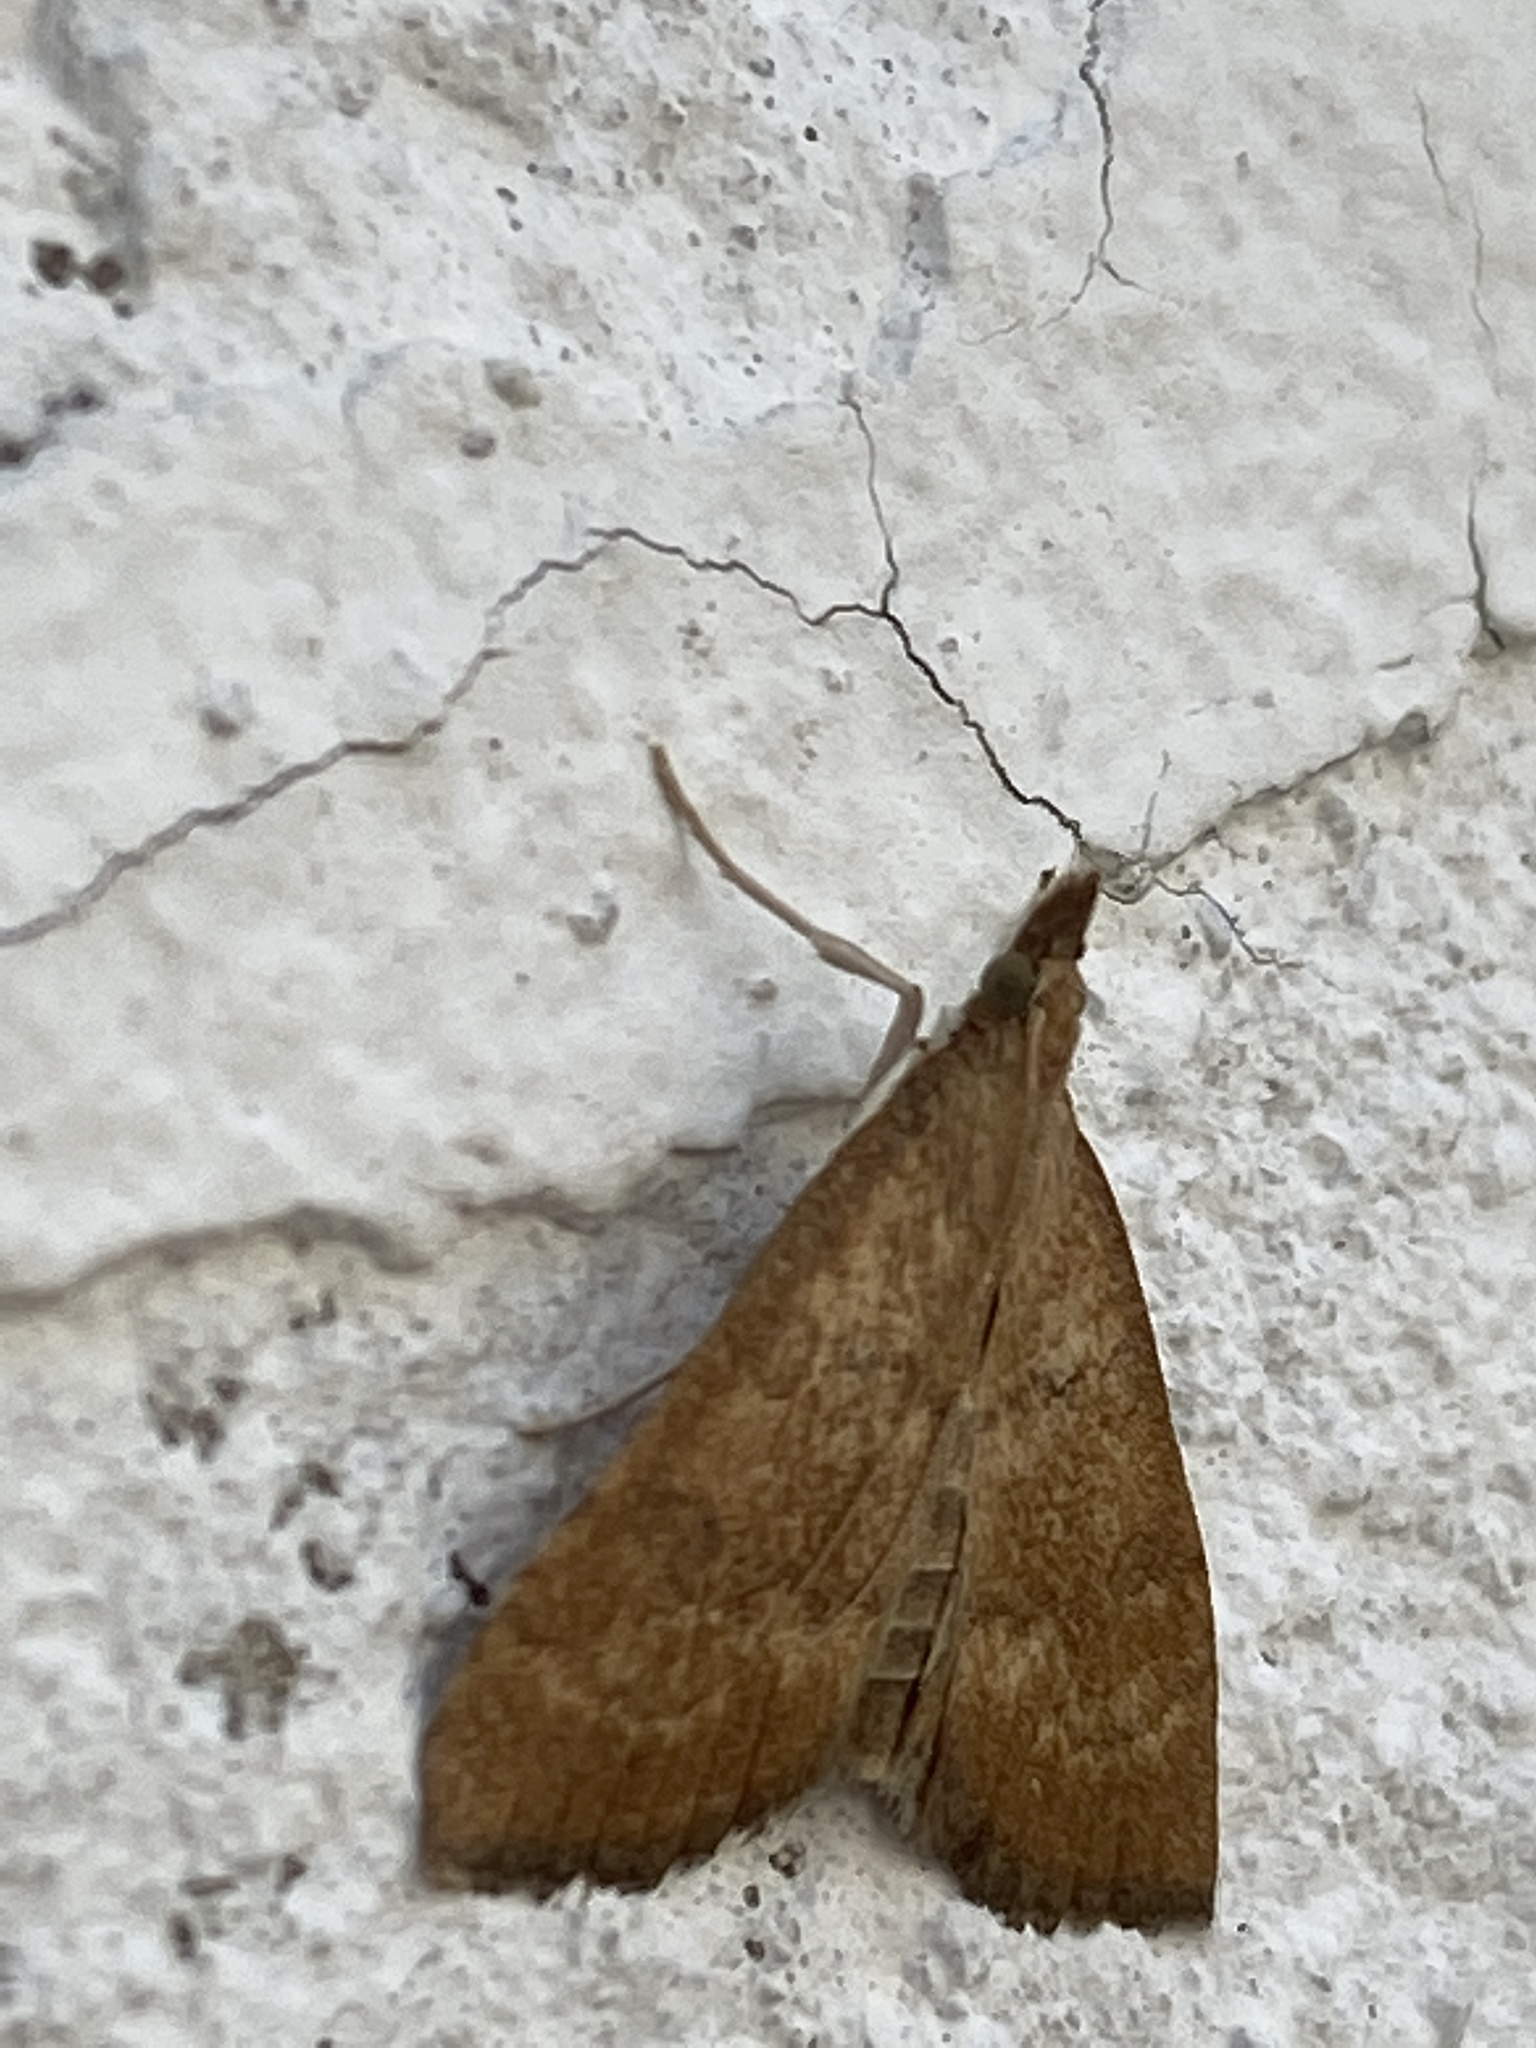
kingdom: Animalia
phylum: Arthropoda
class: Insecta
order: Lepidoptera
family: Crambidae
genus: Udea
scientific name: Udea fulvalis
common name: Fulvous pearl
